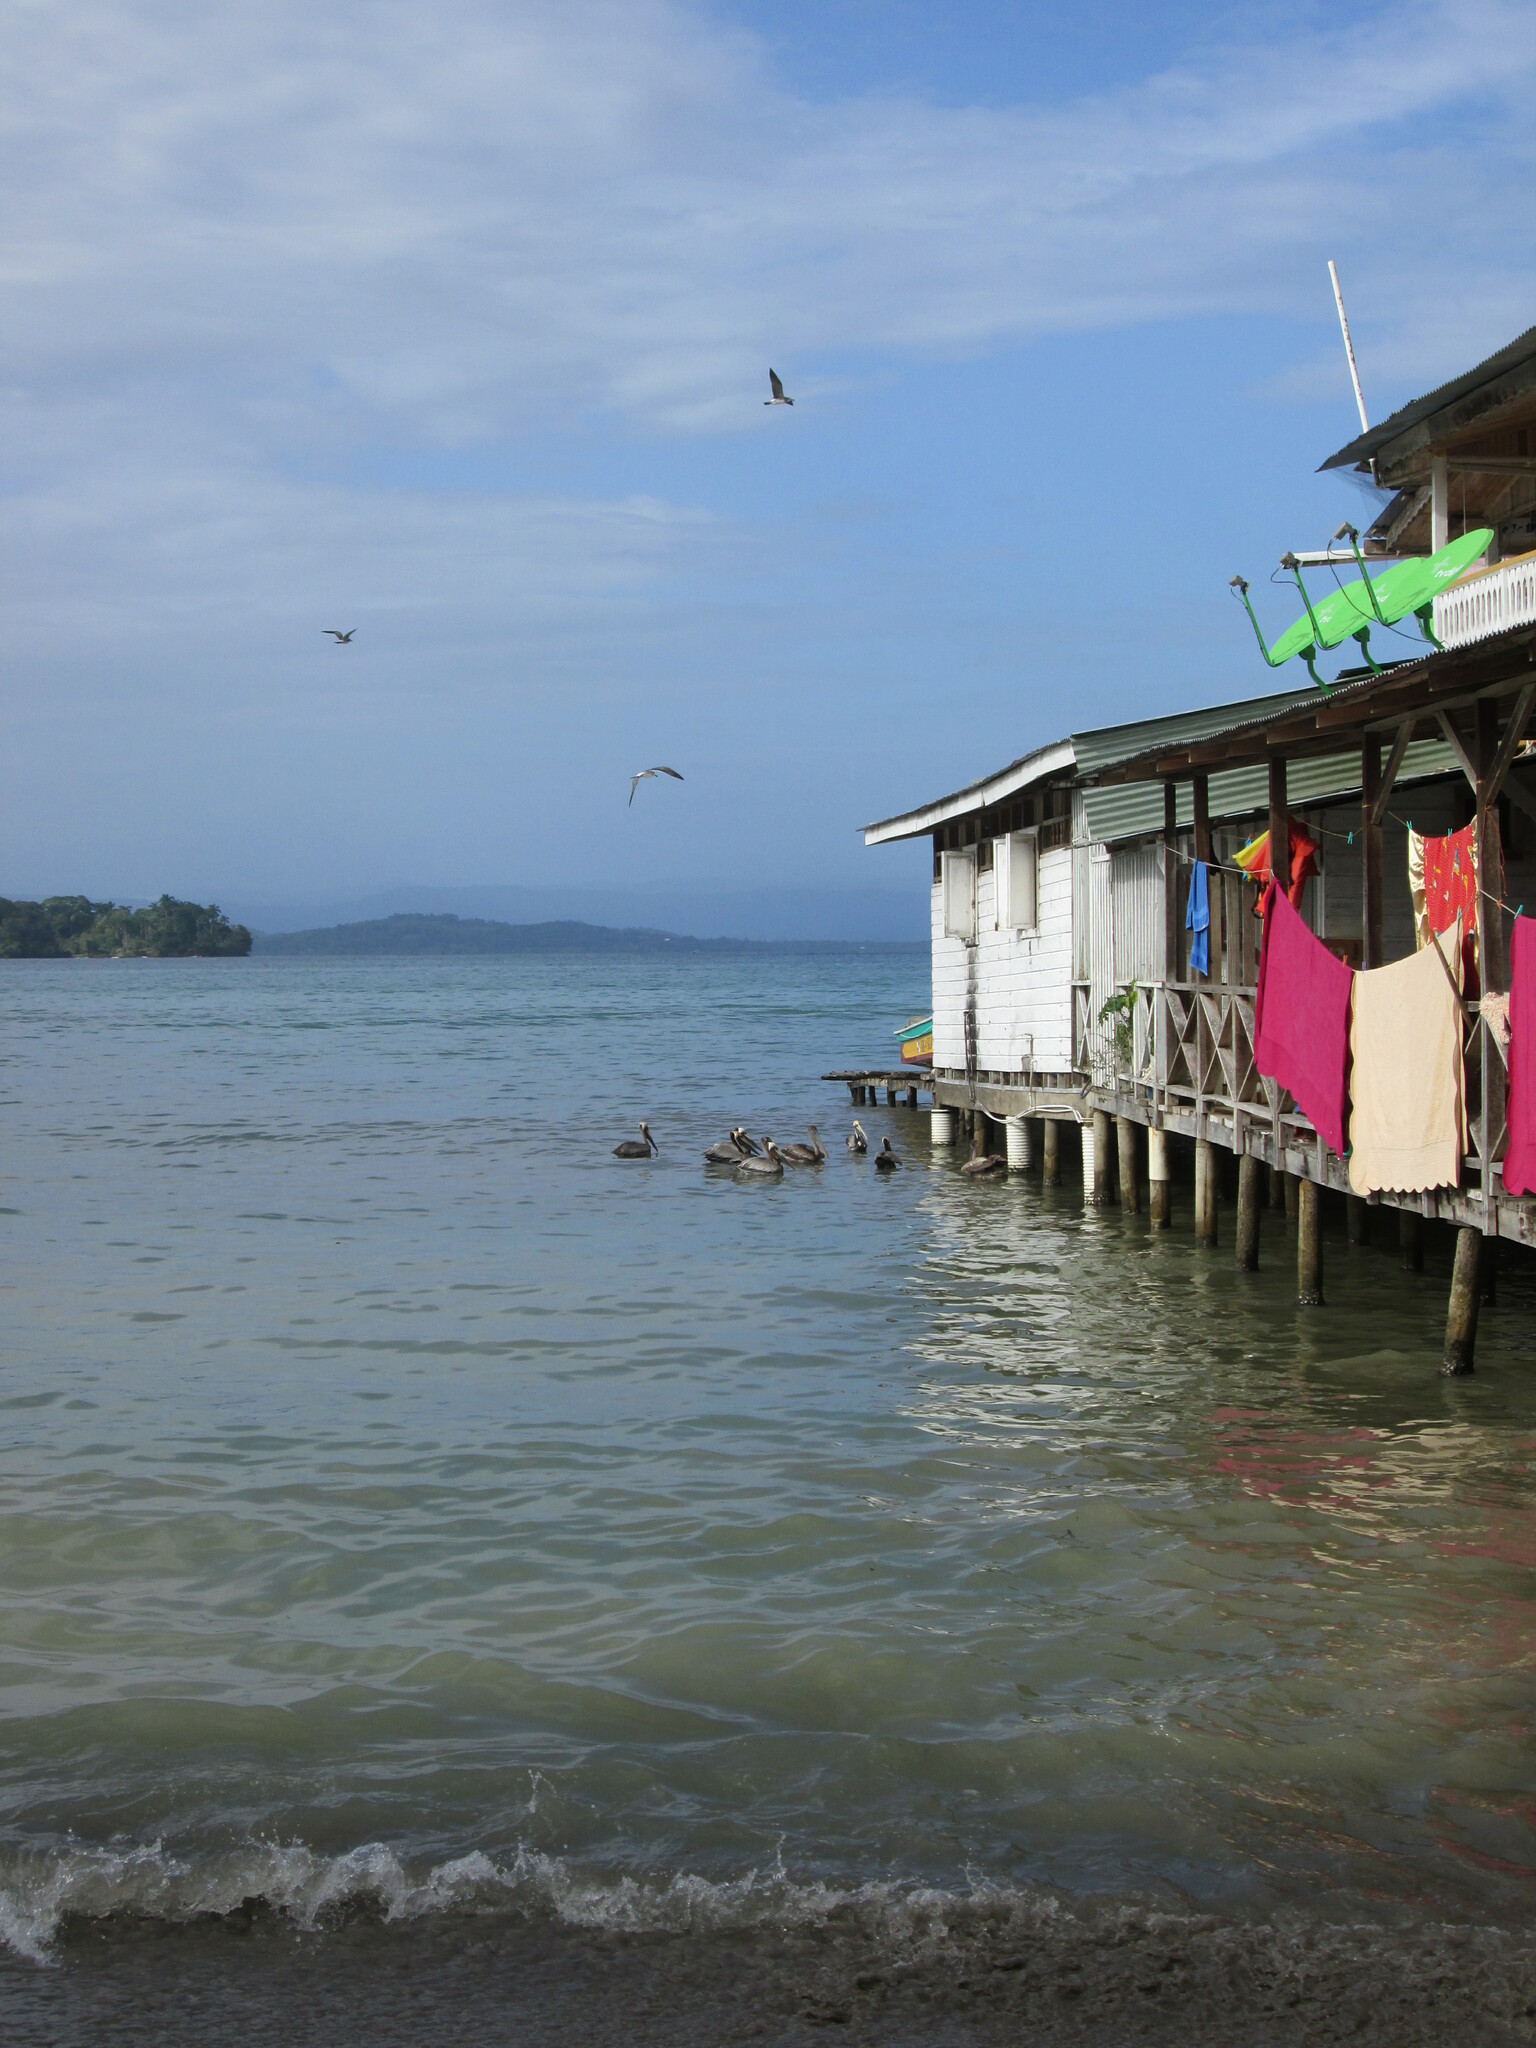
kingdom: Animalia
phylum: Chordata
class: Aves
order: Pelecaniformes
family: Pelecanidae
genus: Pelecanus
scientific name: Pelecanus occidentalis
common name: Brown pelican
